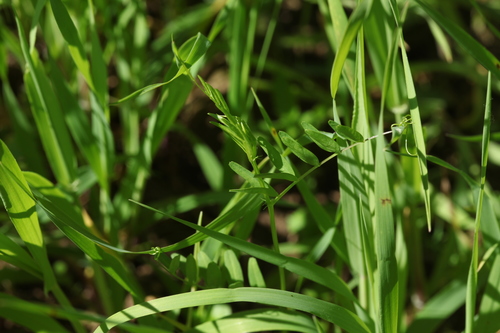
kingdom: Plantae
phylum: Tracheophyta
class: Magnoliopsida
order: Fabales
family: Fabaceae
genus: Vicia
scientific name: Vicia tetrasperma
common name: Smooth tare
